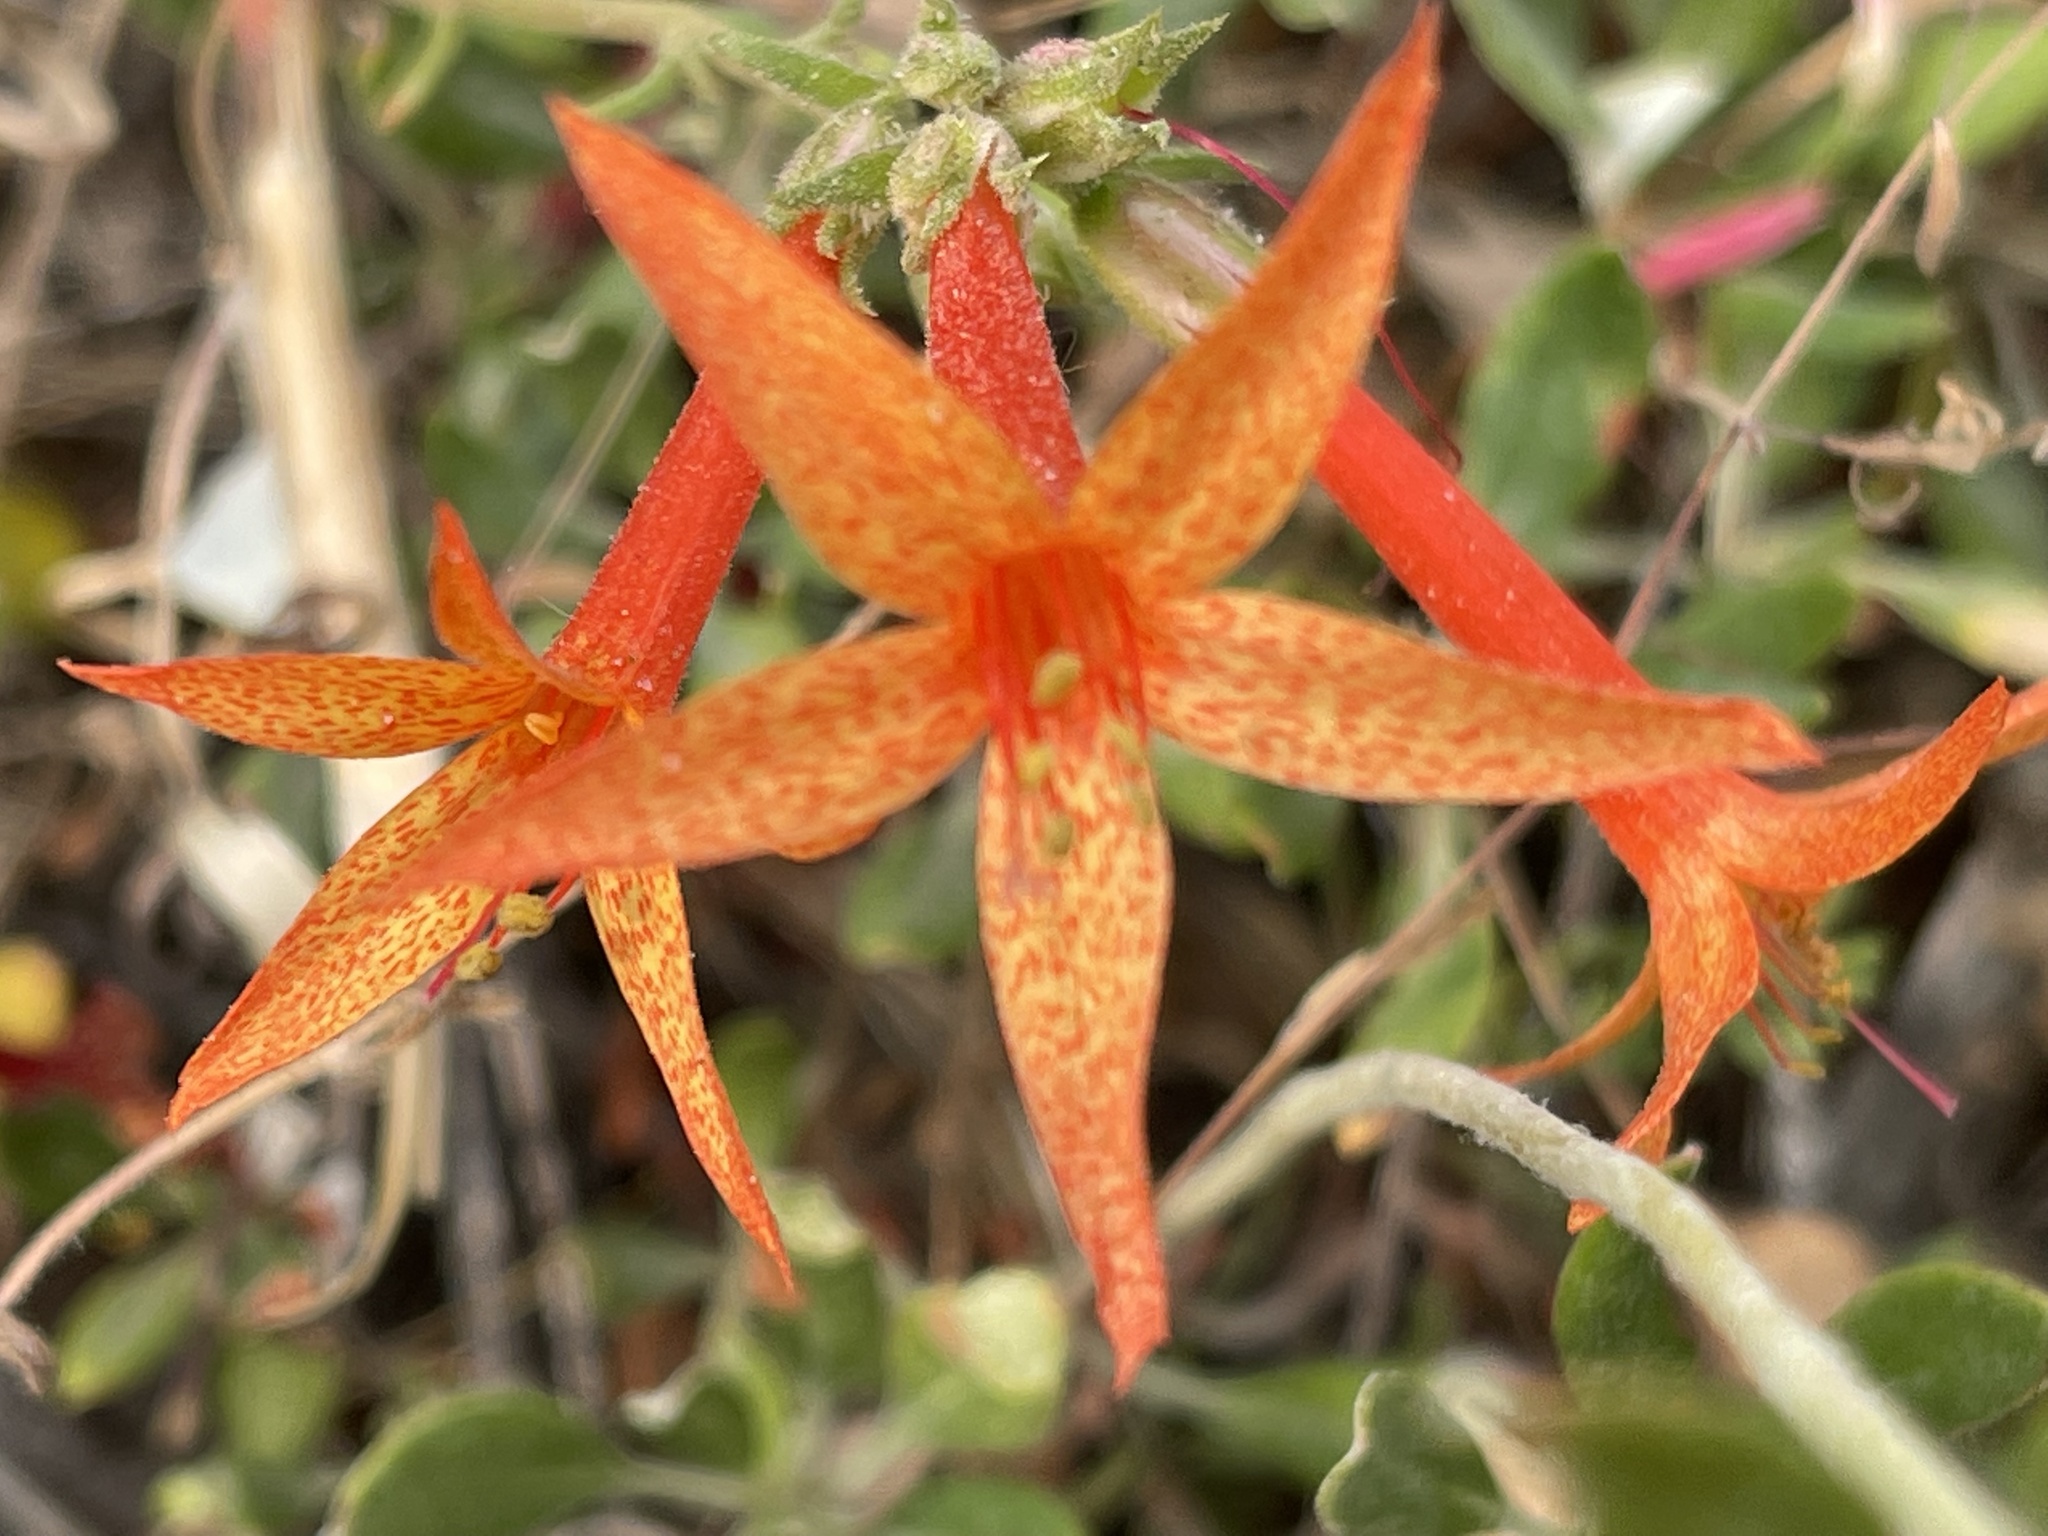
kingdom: Plantae
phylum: Tracheophyta
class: Magnoliopsida
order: Ericales
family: Polemoniaceae
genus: Ipomopsis
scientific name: Ipomopsis aggregata
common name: Scarlet gilia
